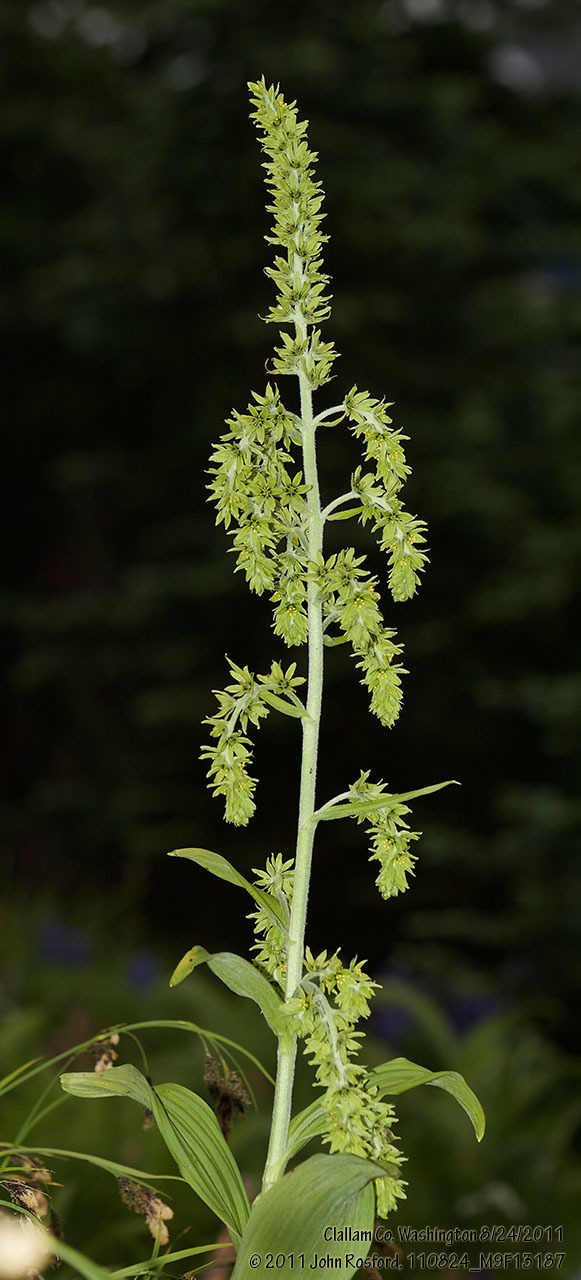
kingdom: Plantae
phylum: Tracheophyta
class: Liliopsida
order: Liliales
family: Melanthiaceae
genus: Veratrum
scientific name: Veratrum viride
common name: American false hellebore
